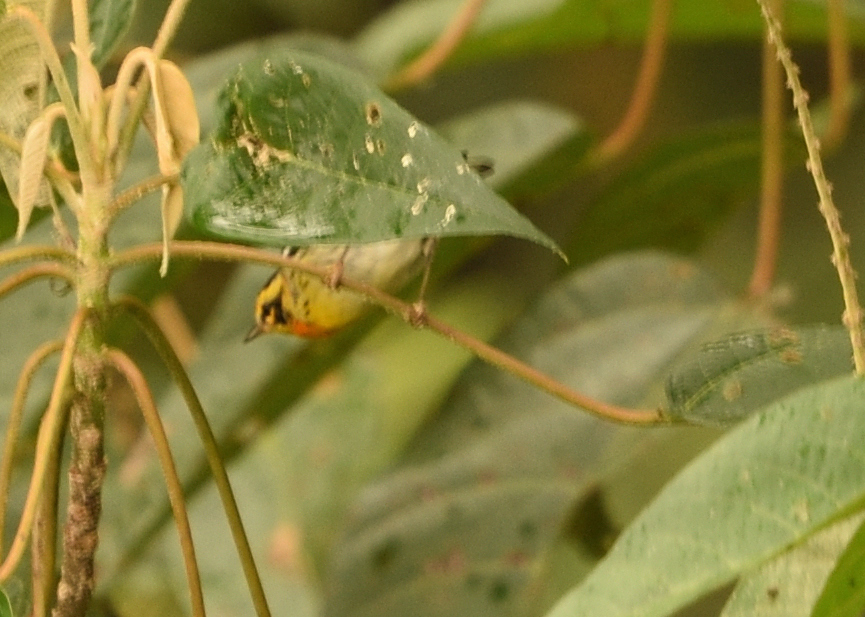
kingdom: Animalia
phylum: Chordata
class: Aves
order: Passeriformes
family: Parulidae
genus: Setophaga
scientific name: Setophaga fusca
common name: Blackburnian warbler
